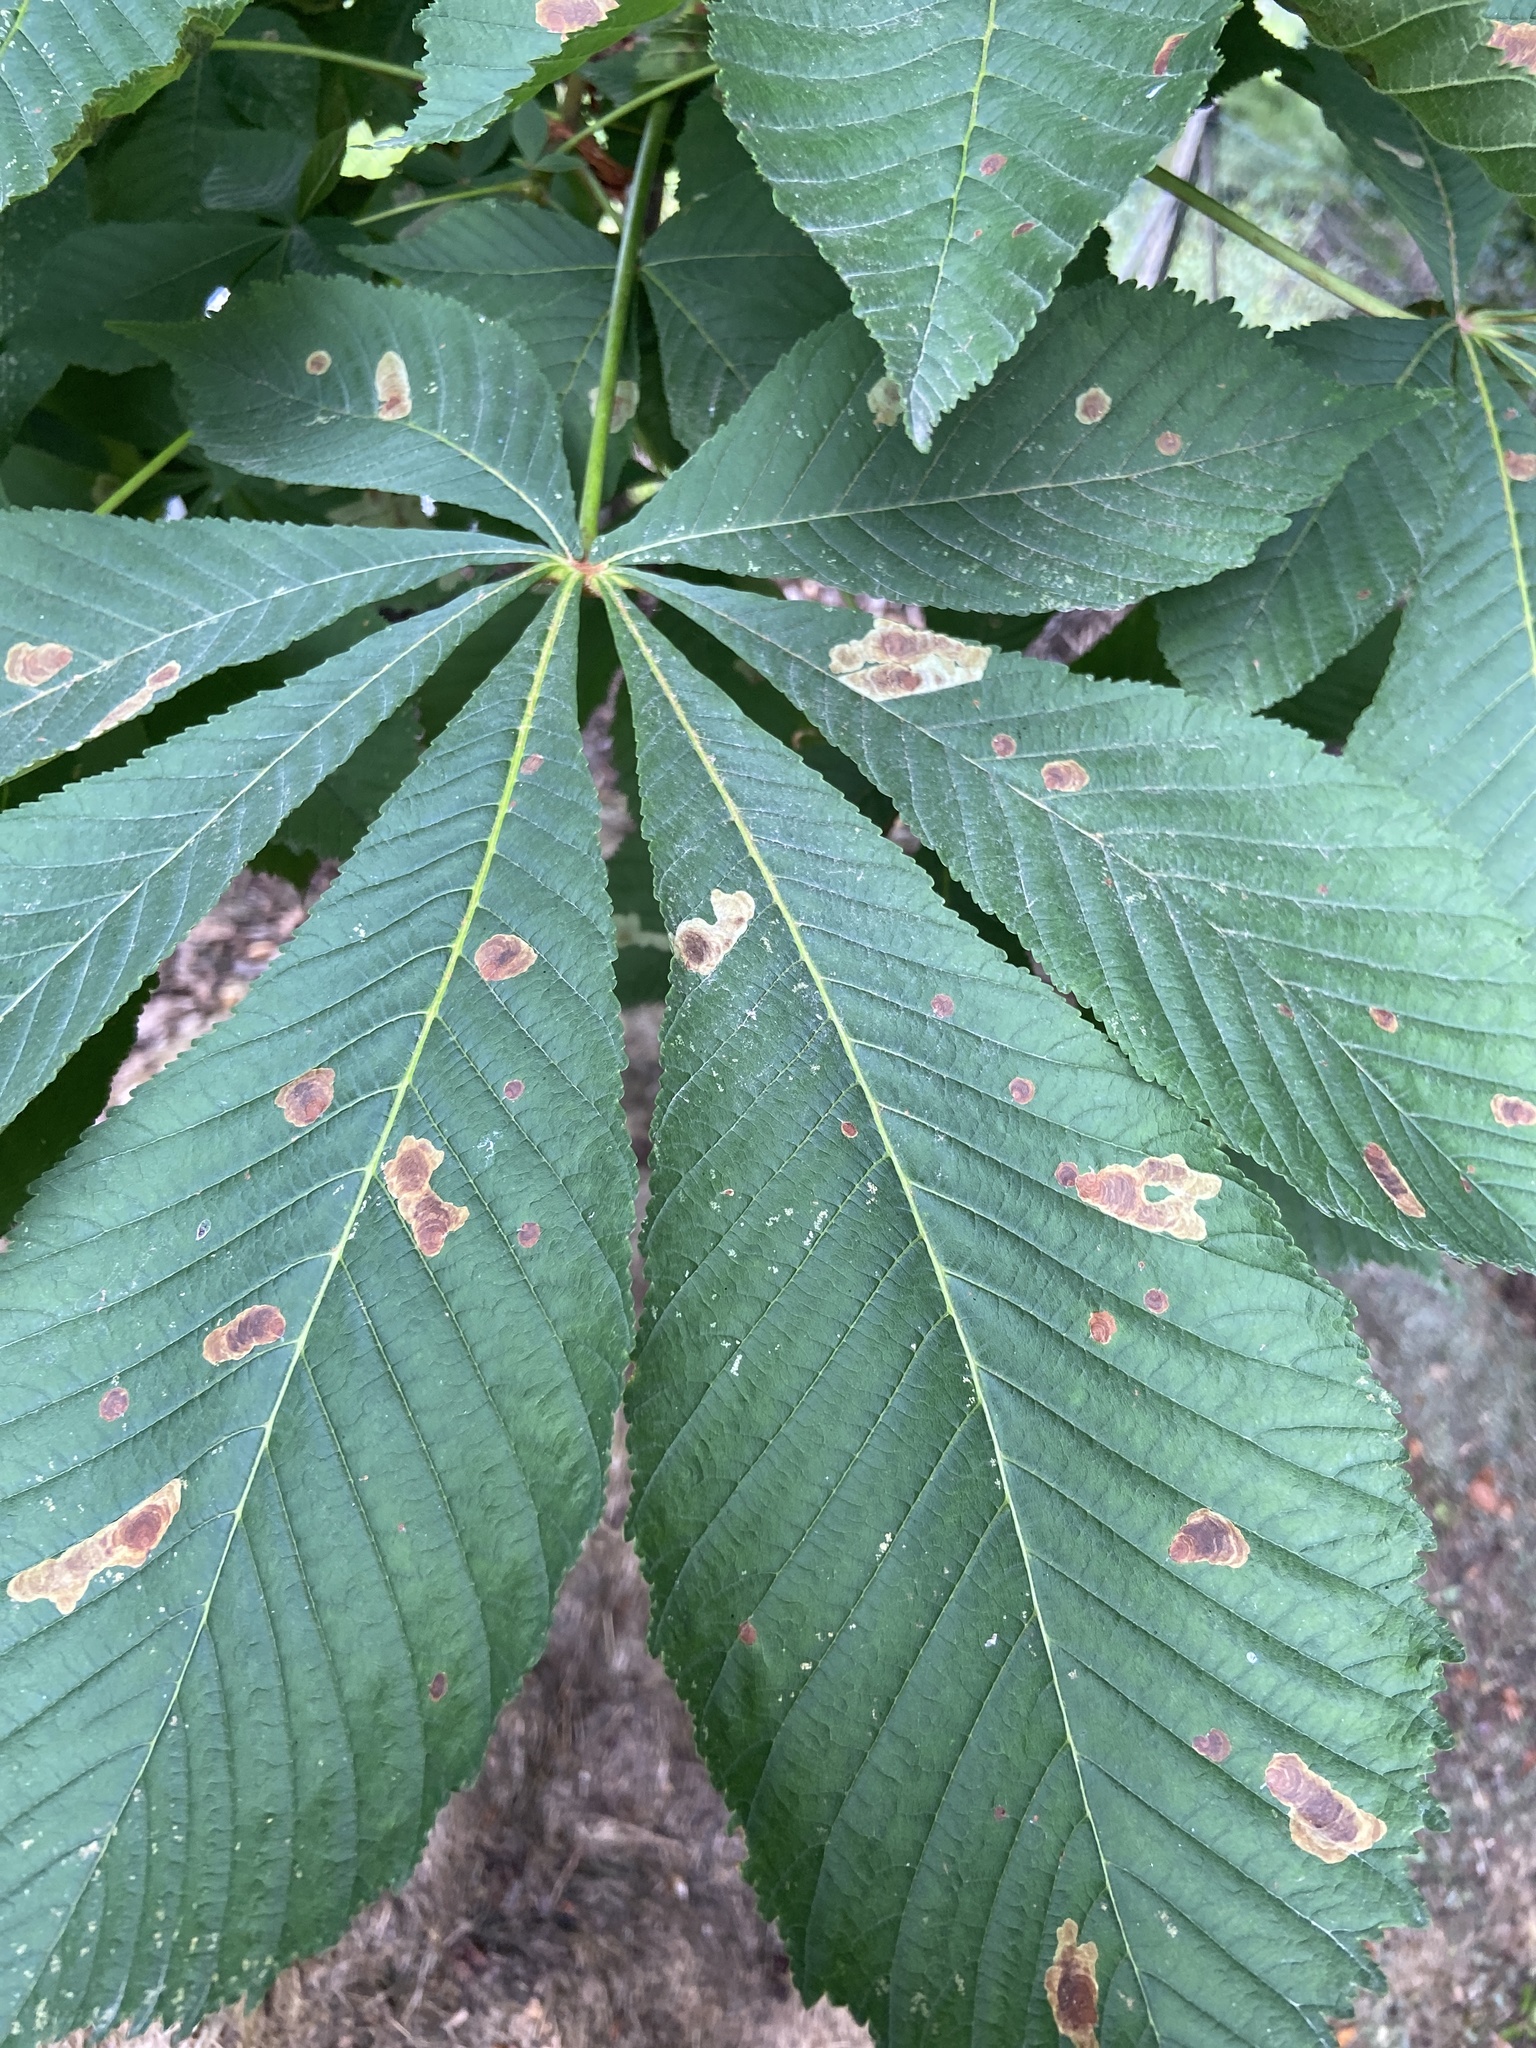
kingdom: Animalia
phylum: Arthropoda
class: Insecta
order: Lepidoptera
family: Gracillariidae
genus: Cameraria
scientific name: Cameraria ohridella
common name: Horse-chestnut leaf-miner
